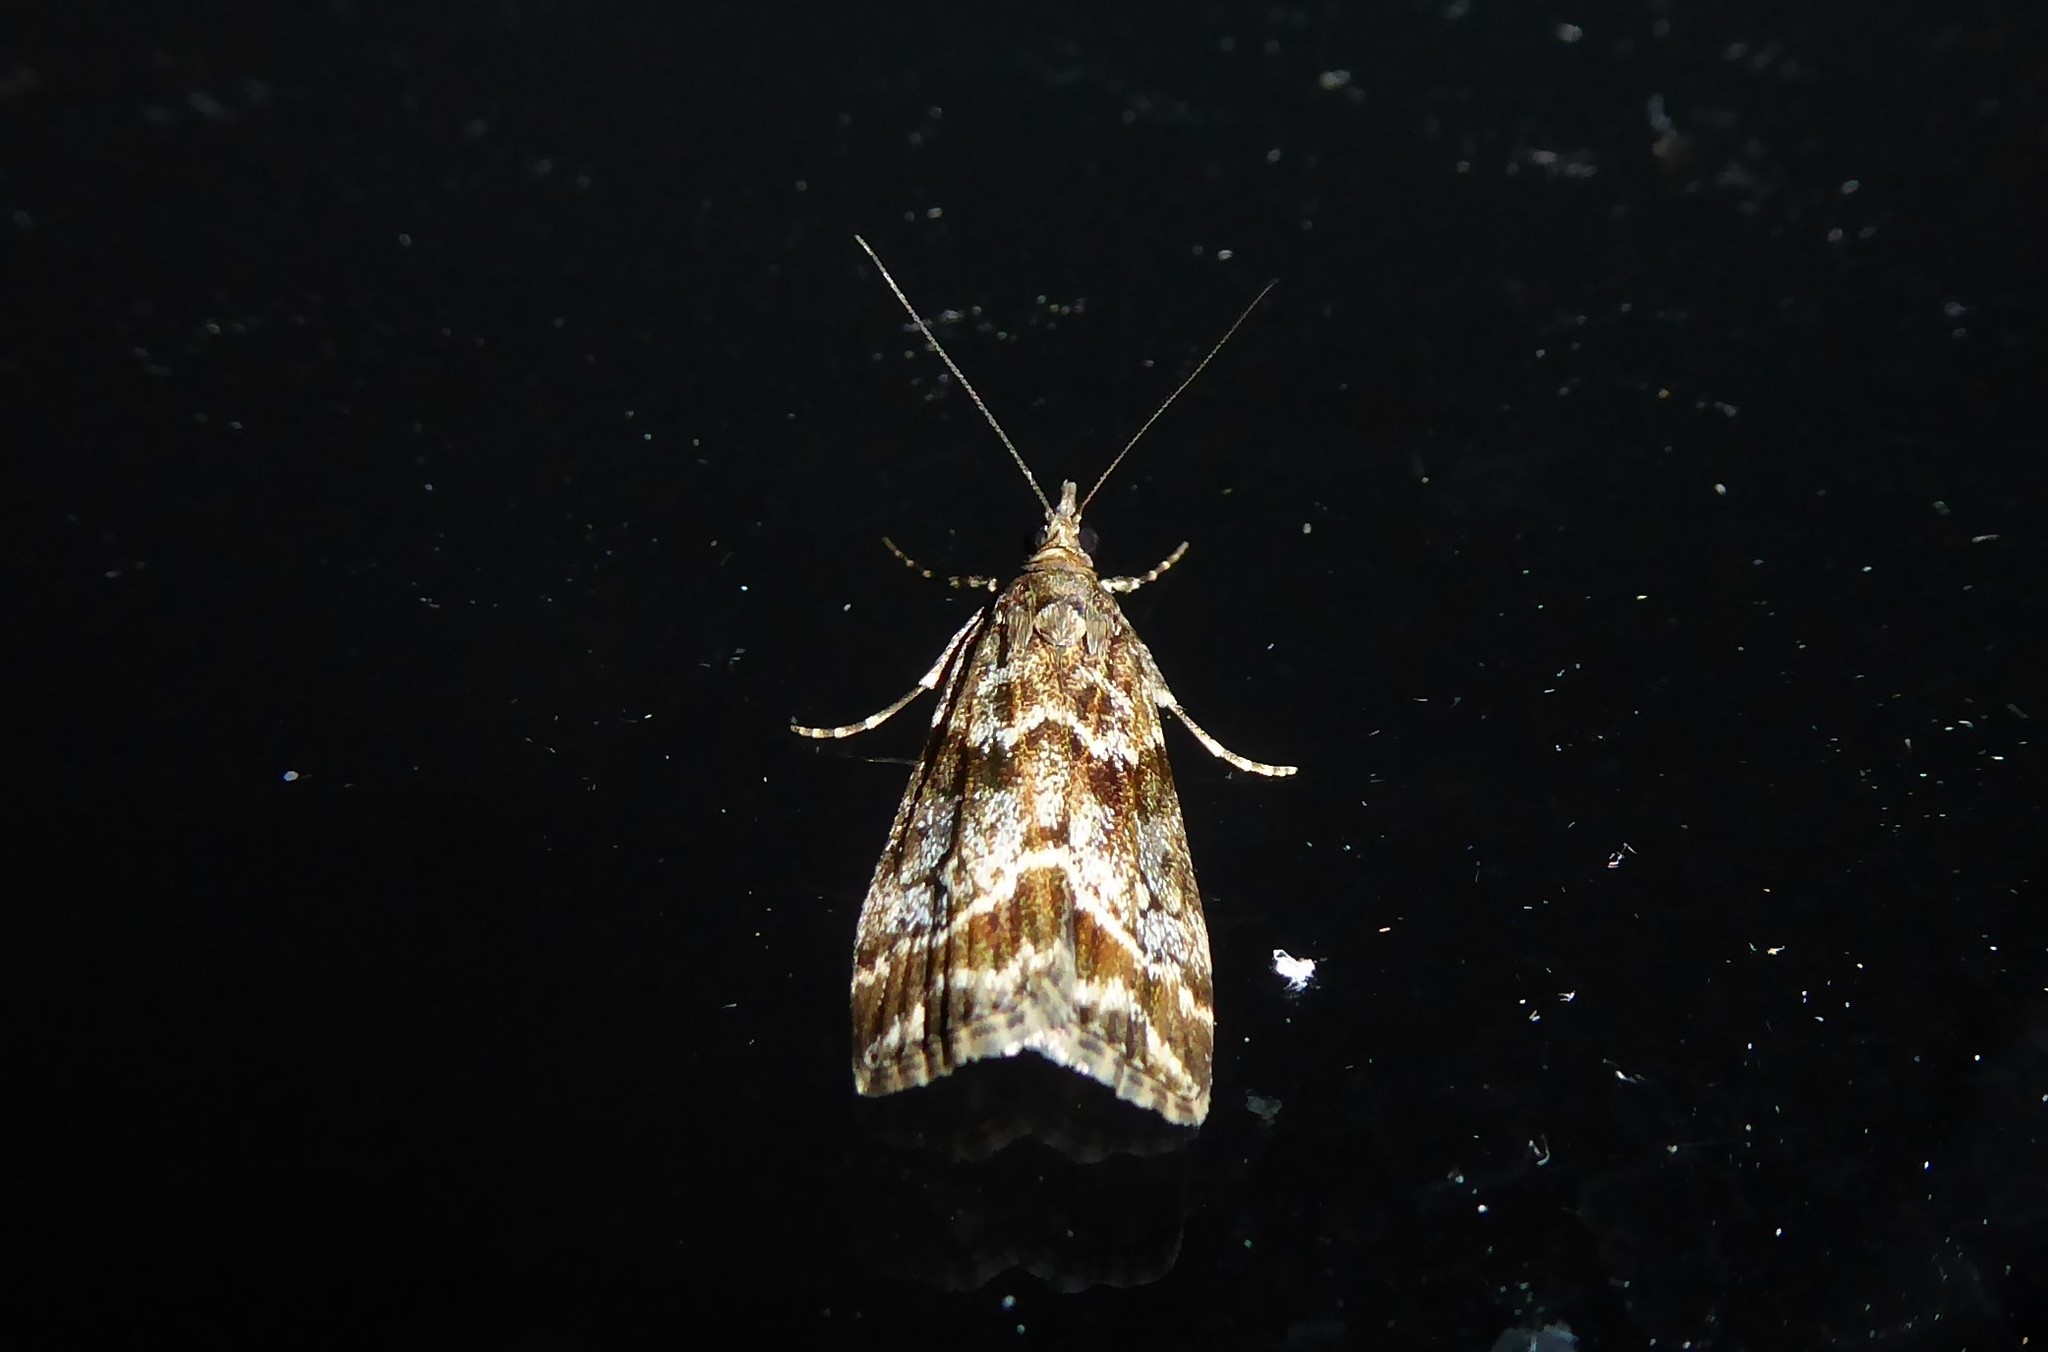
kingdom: Animalia
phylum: Arthropoda
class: Insecta
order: Lepidoptera
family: Crambidae
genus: Eudonia
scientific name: Eudonia legnota
